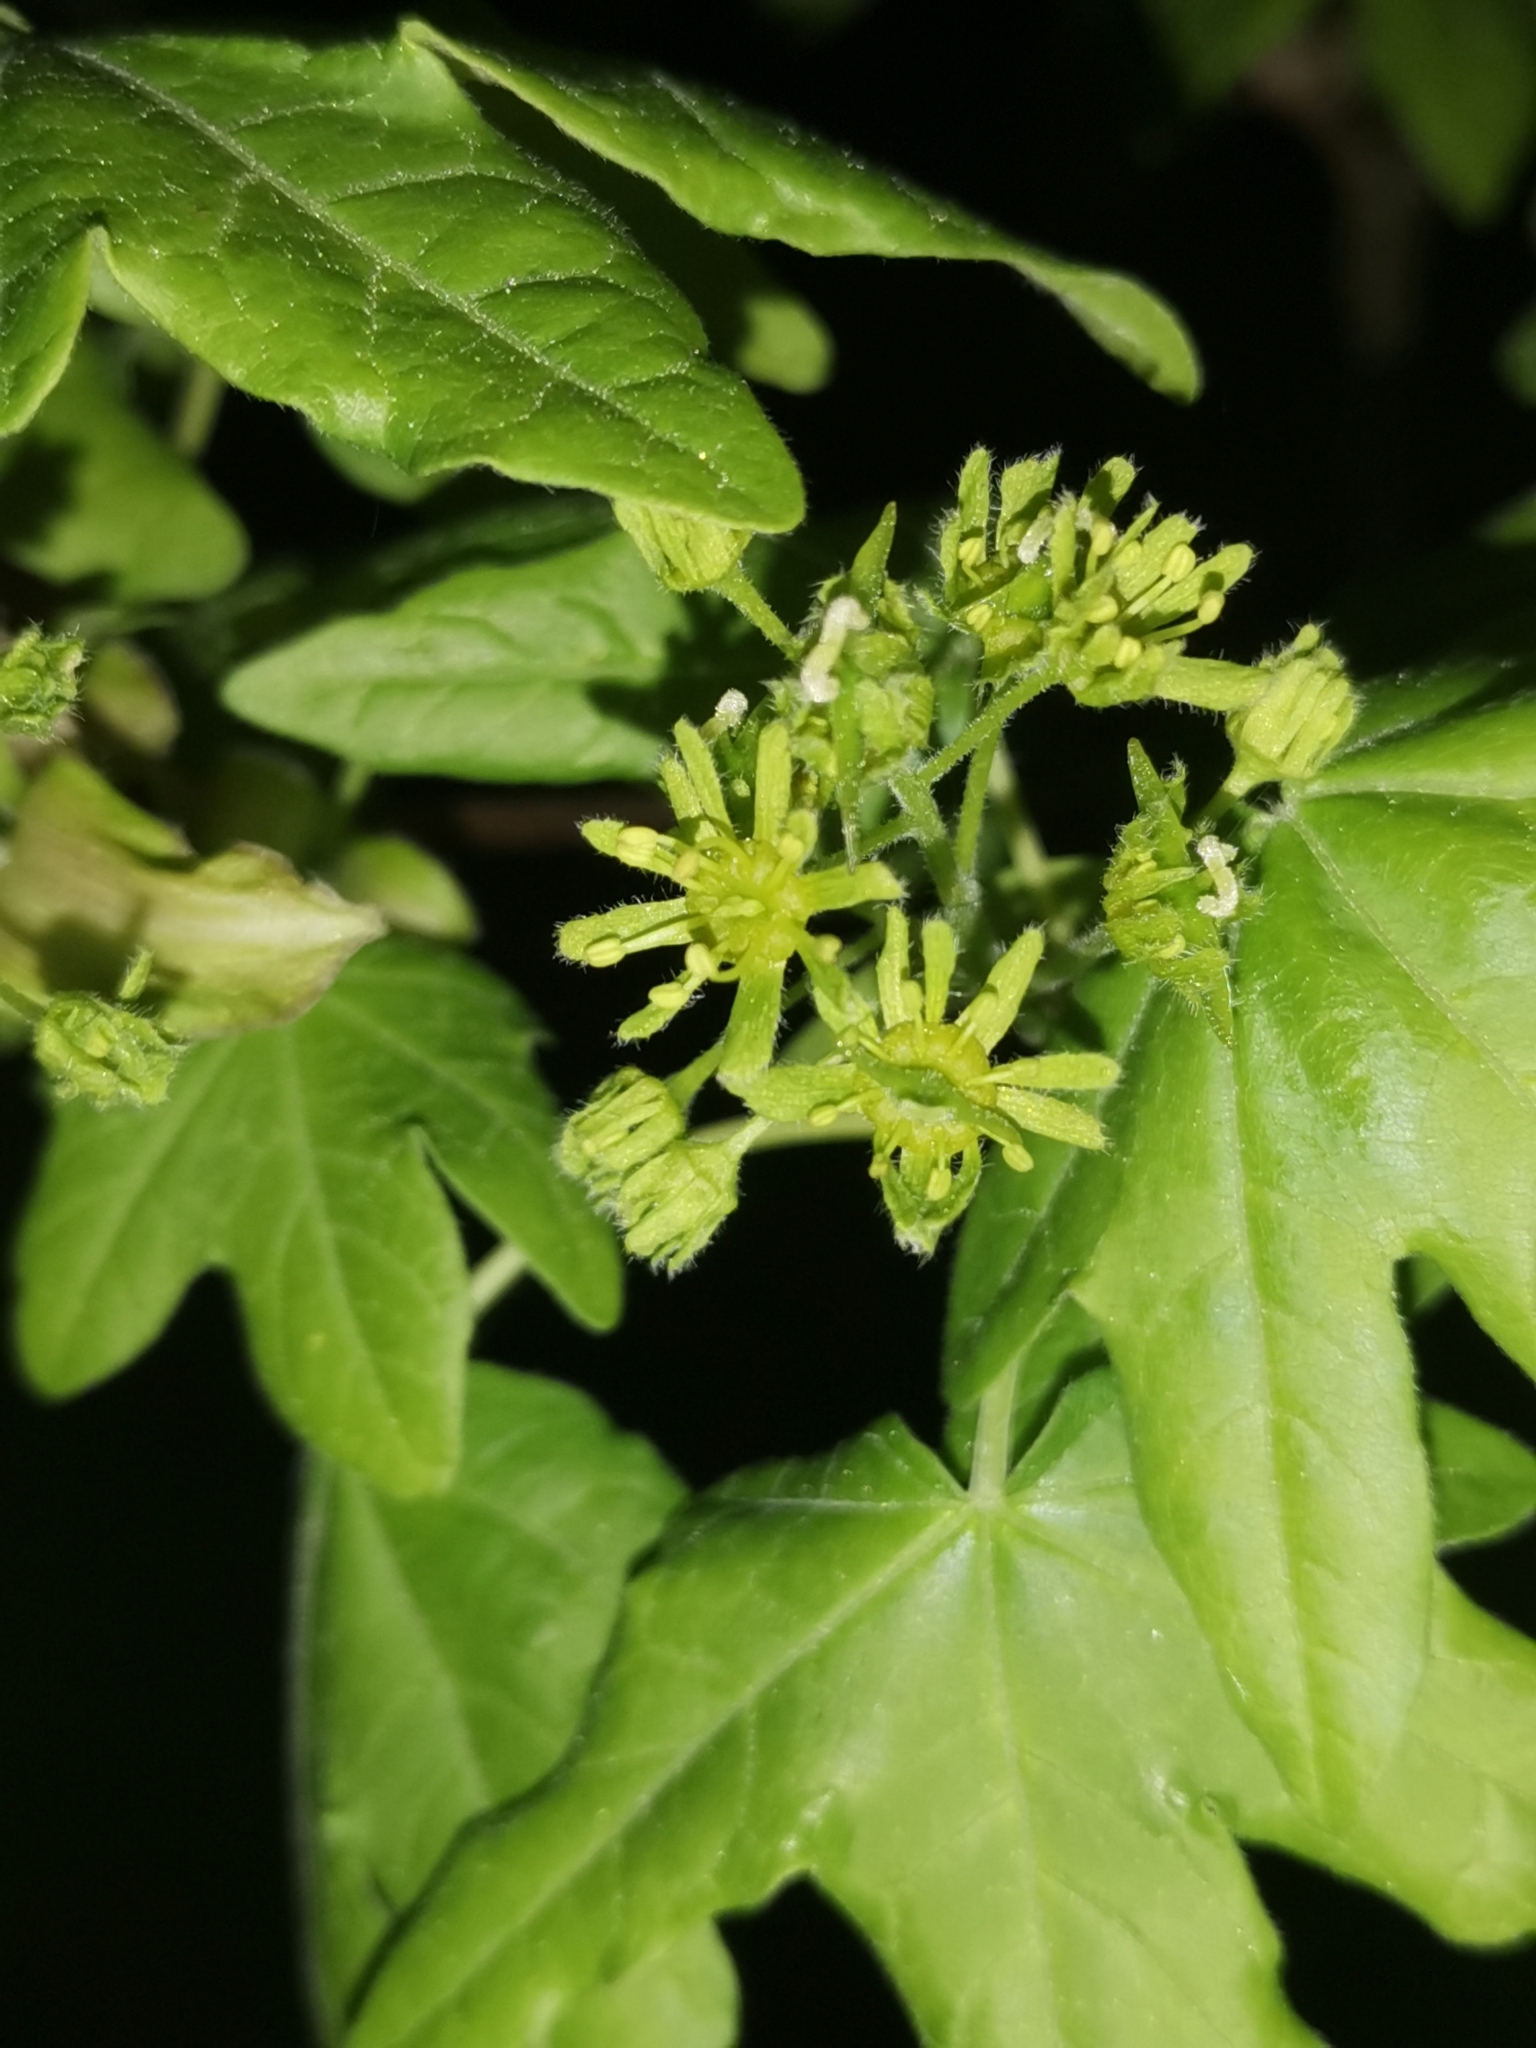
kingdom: Plantae
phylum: Tracheophyta
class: Magnoliopsida
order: Sapindales
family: Sapindaceae
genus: Acer
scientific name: Acer campestre
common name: Field maple
